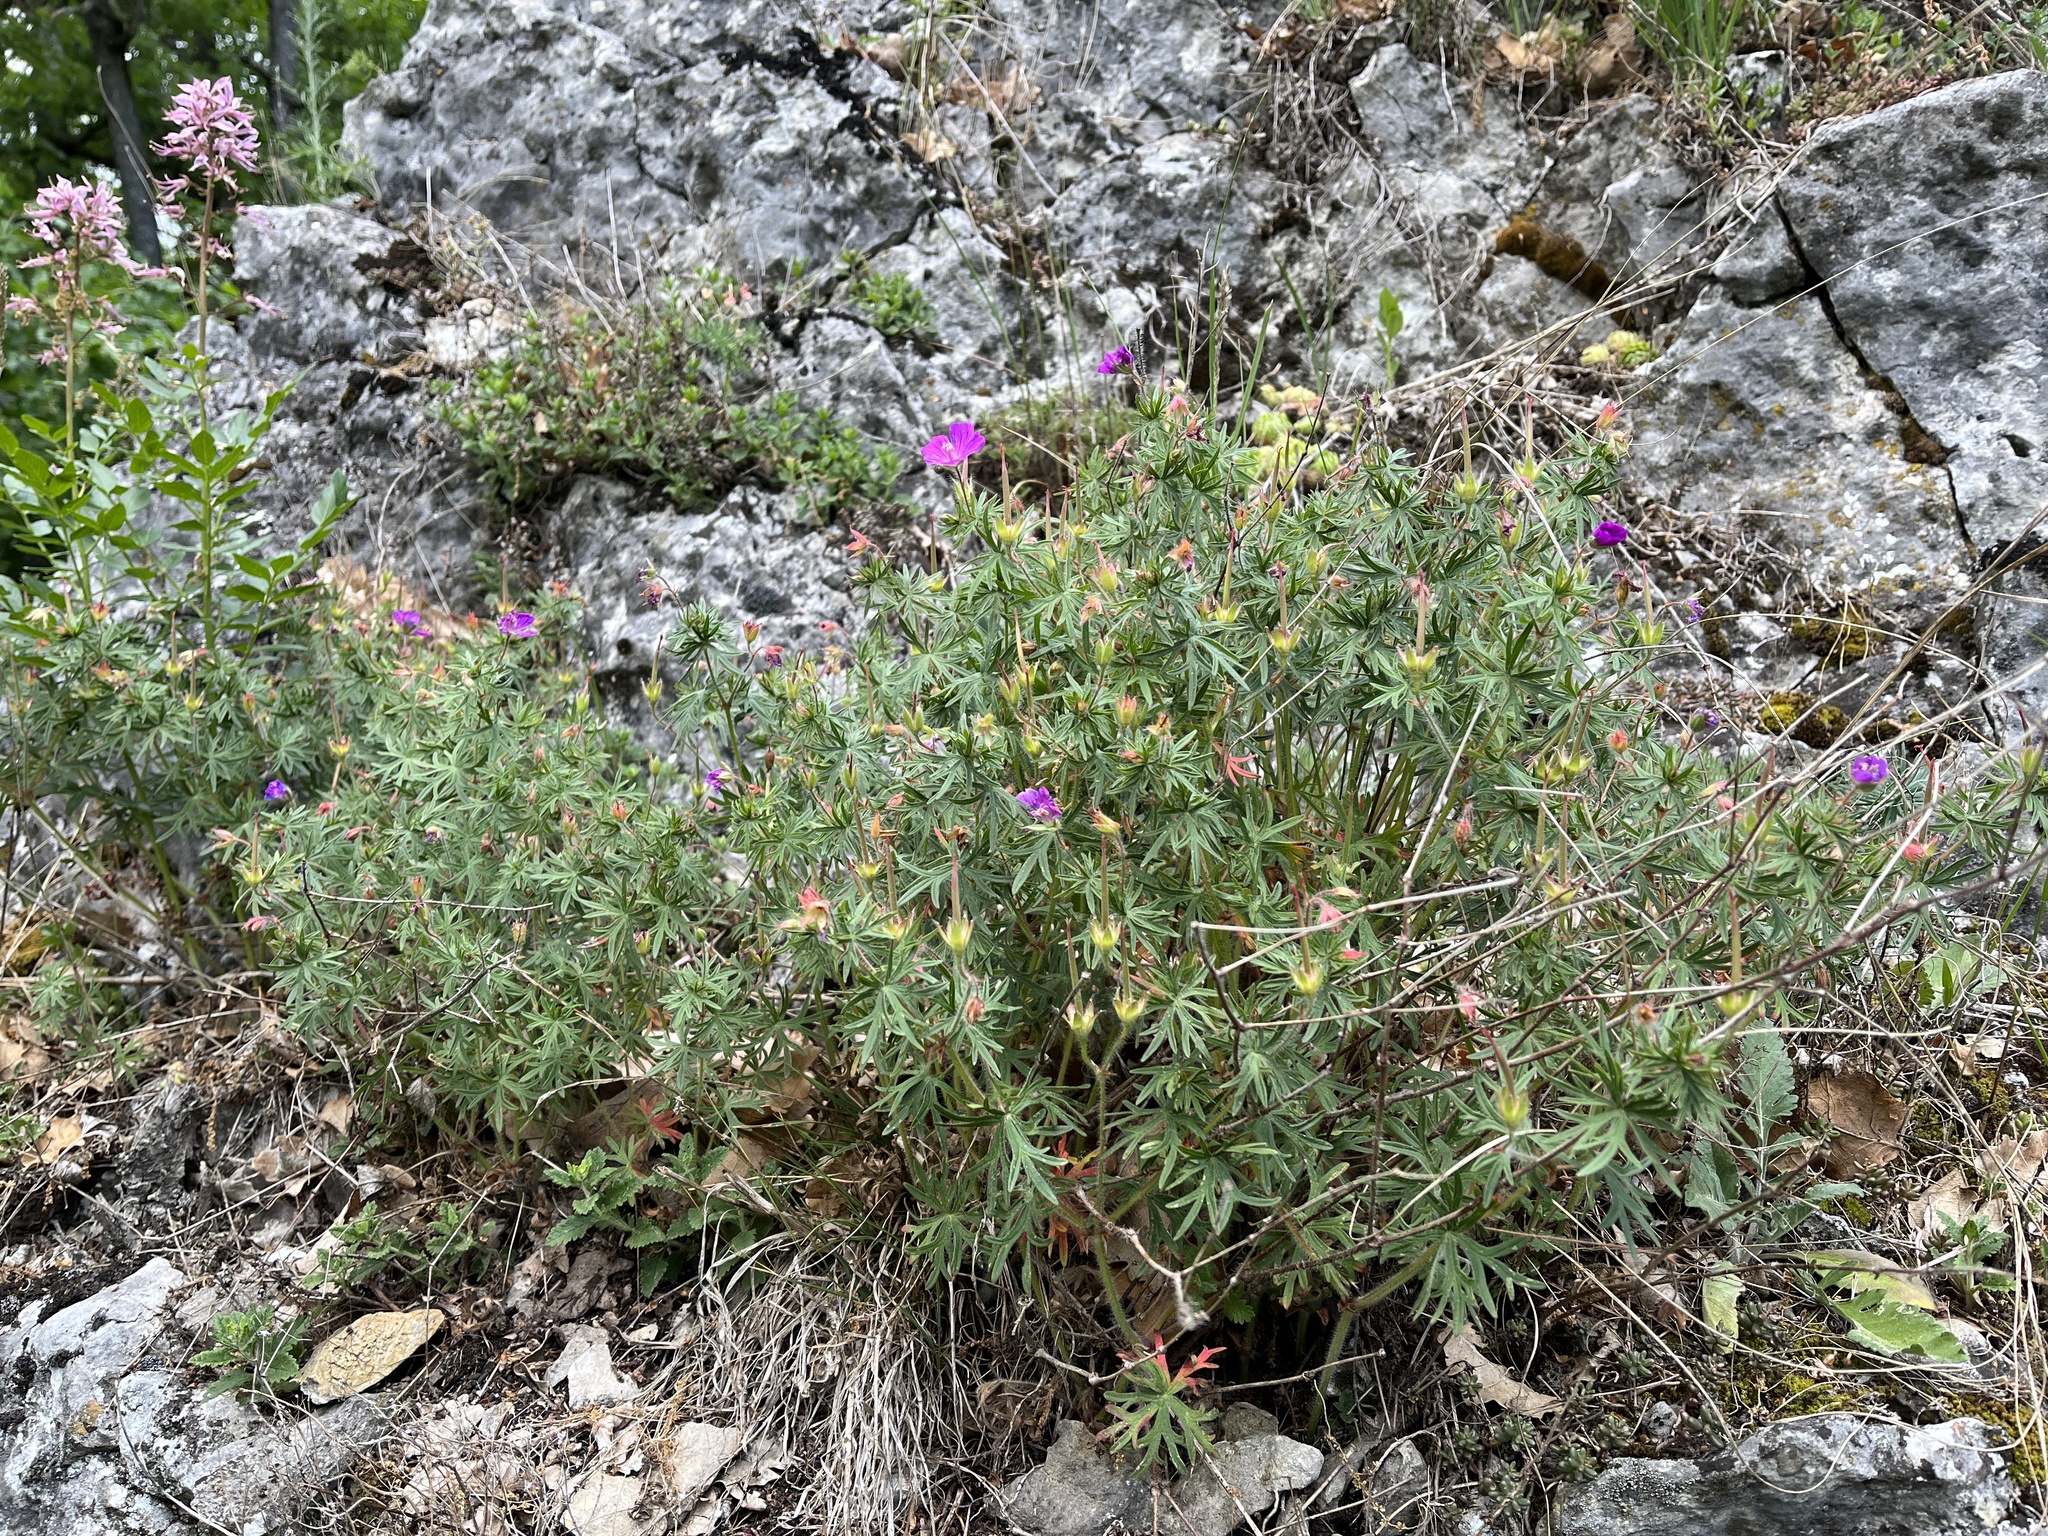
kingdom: Plantae
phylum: Tracheophyta
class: Magnoliopsida
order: Geraniales
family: Geraniaceae
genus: Geranium
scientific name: Geranium sanguineum
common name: Bloody crane's-bill
